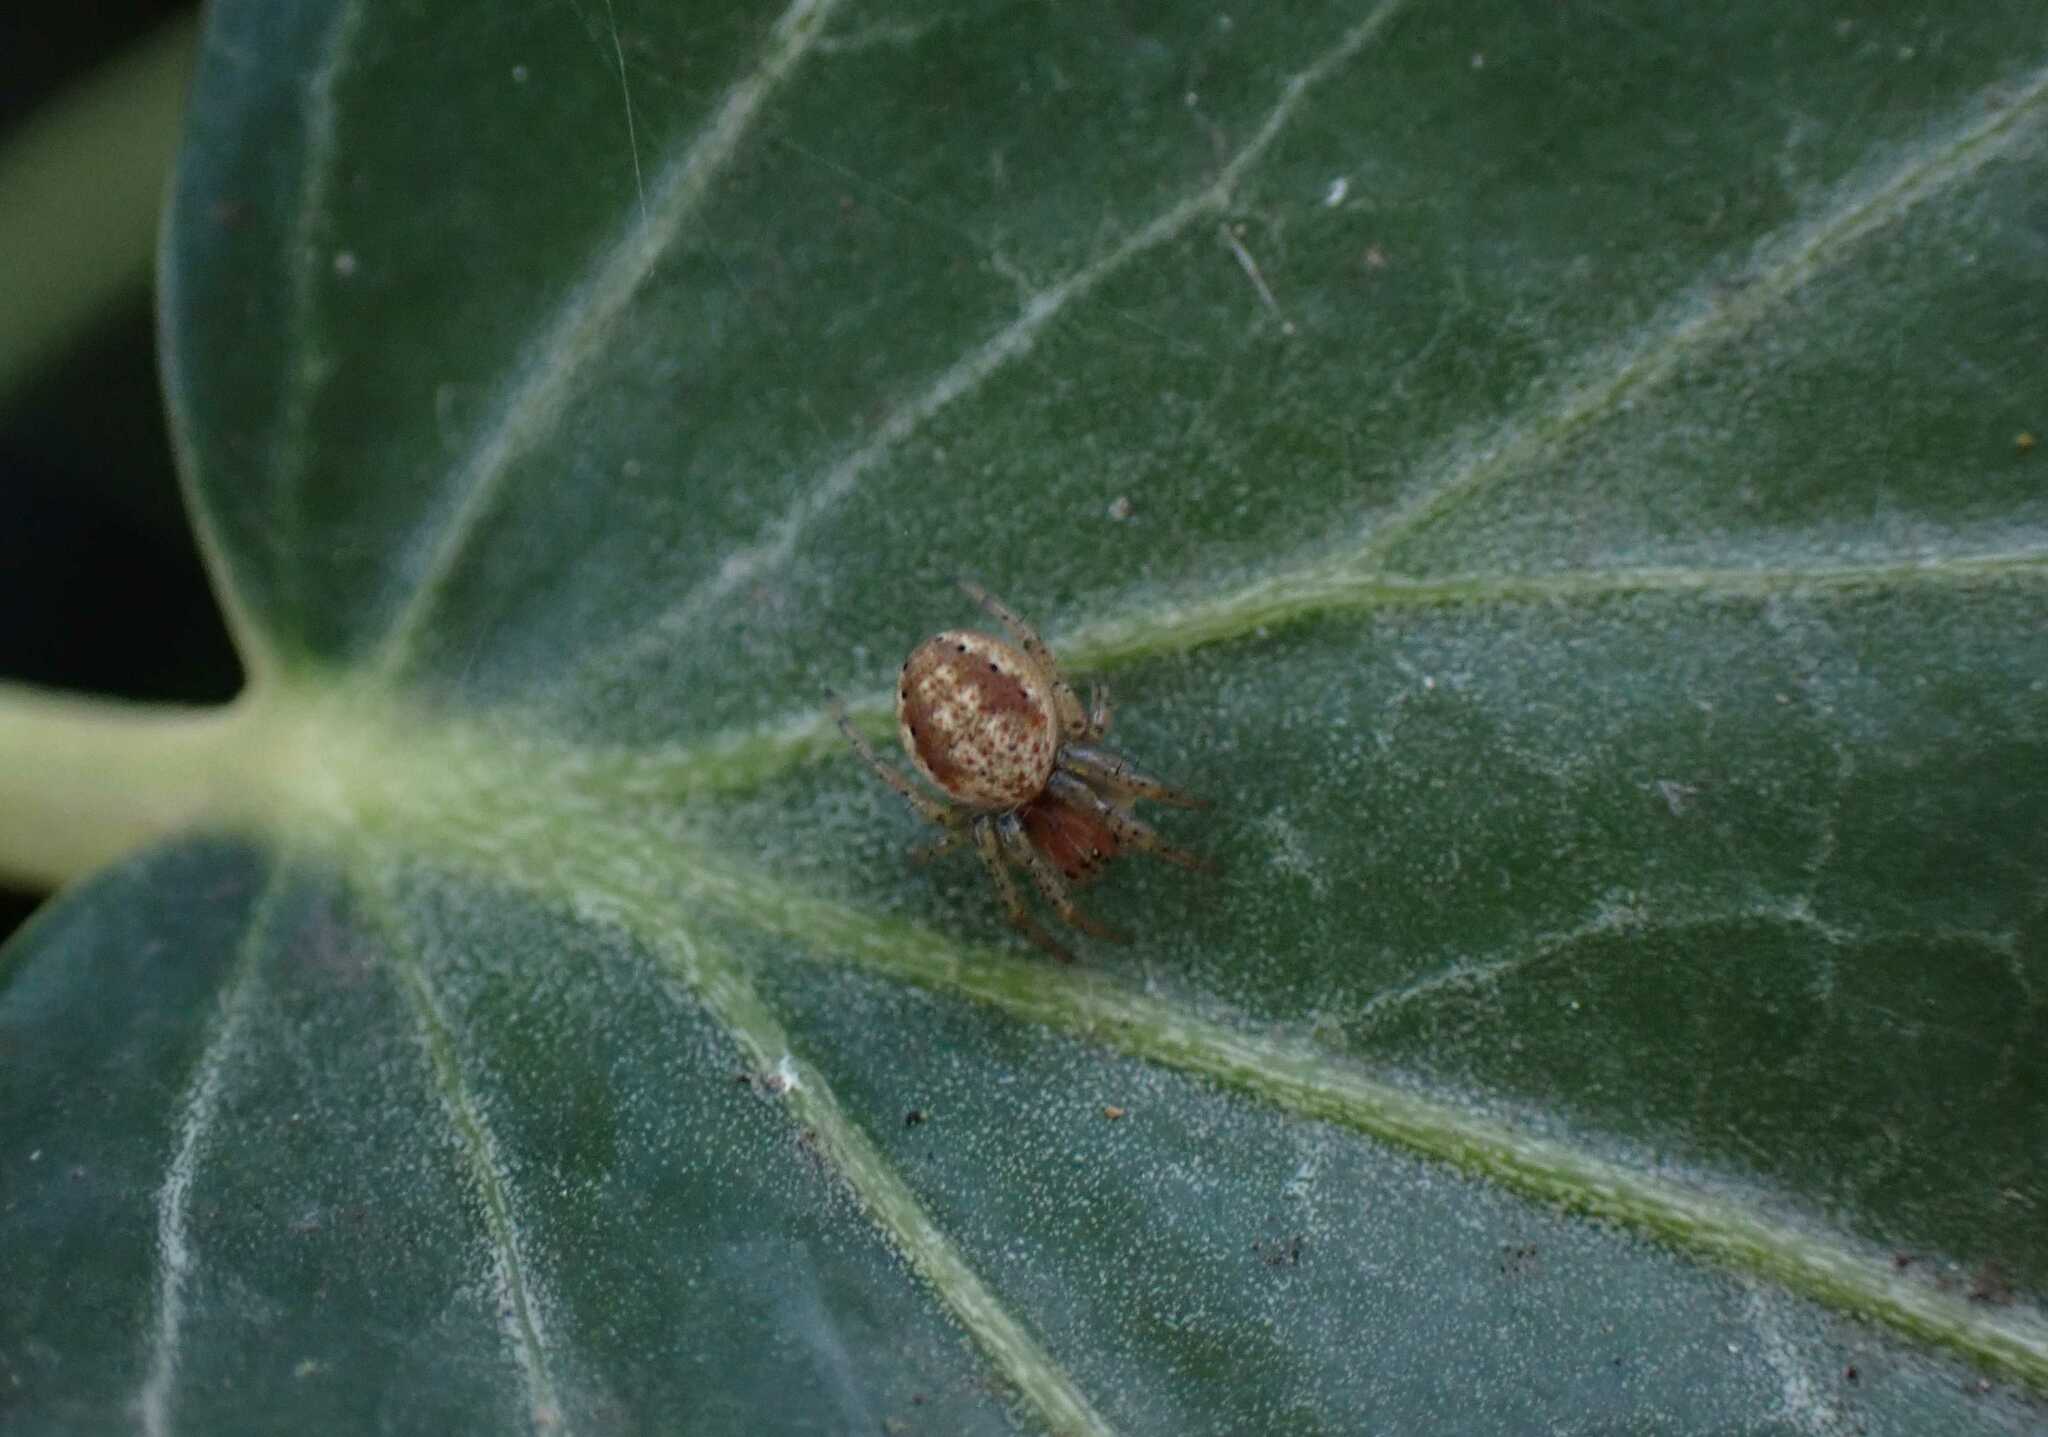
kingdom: Animalia
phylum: Arthropoda
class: Arachnida
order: Araneae
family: Araneidae
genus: Araniella
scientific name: Araniella
